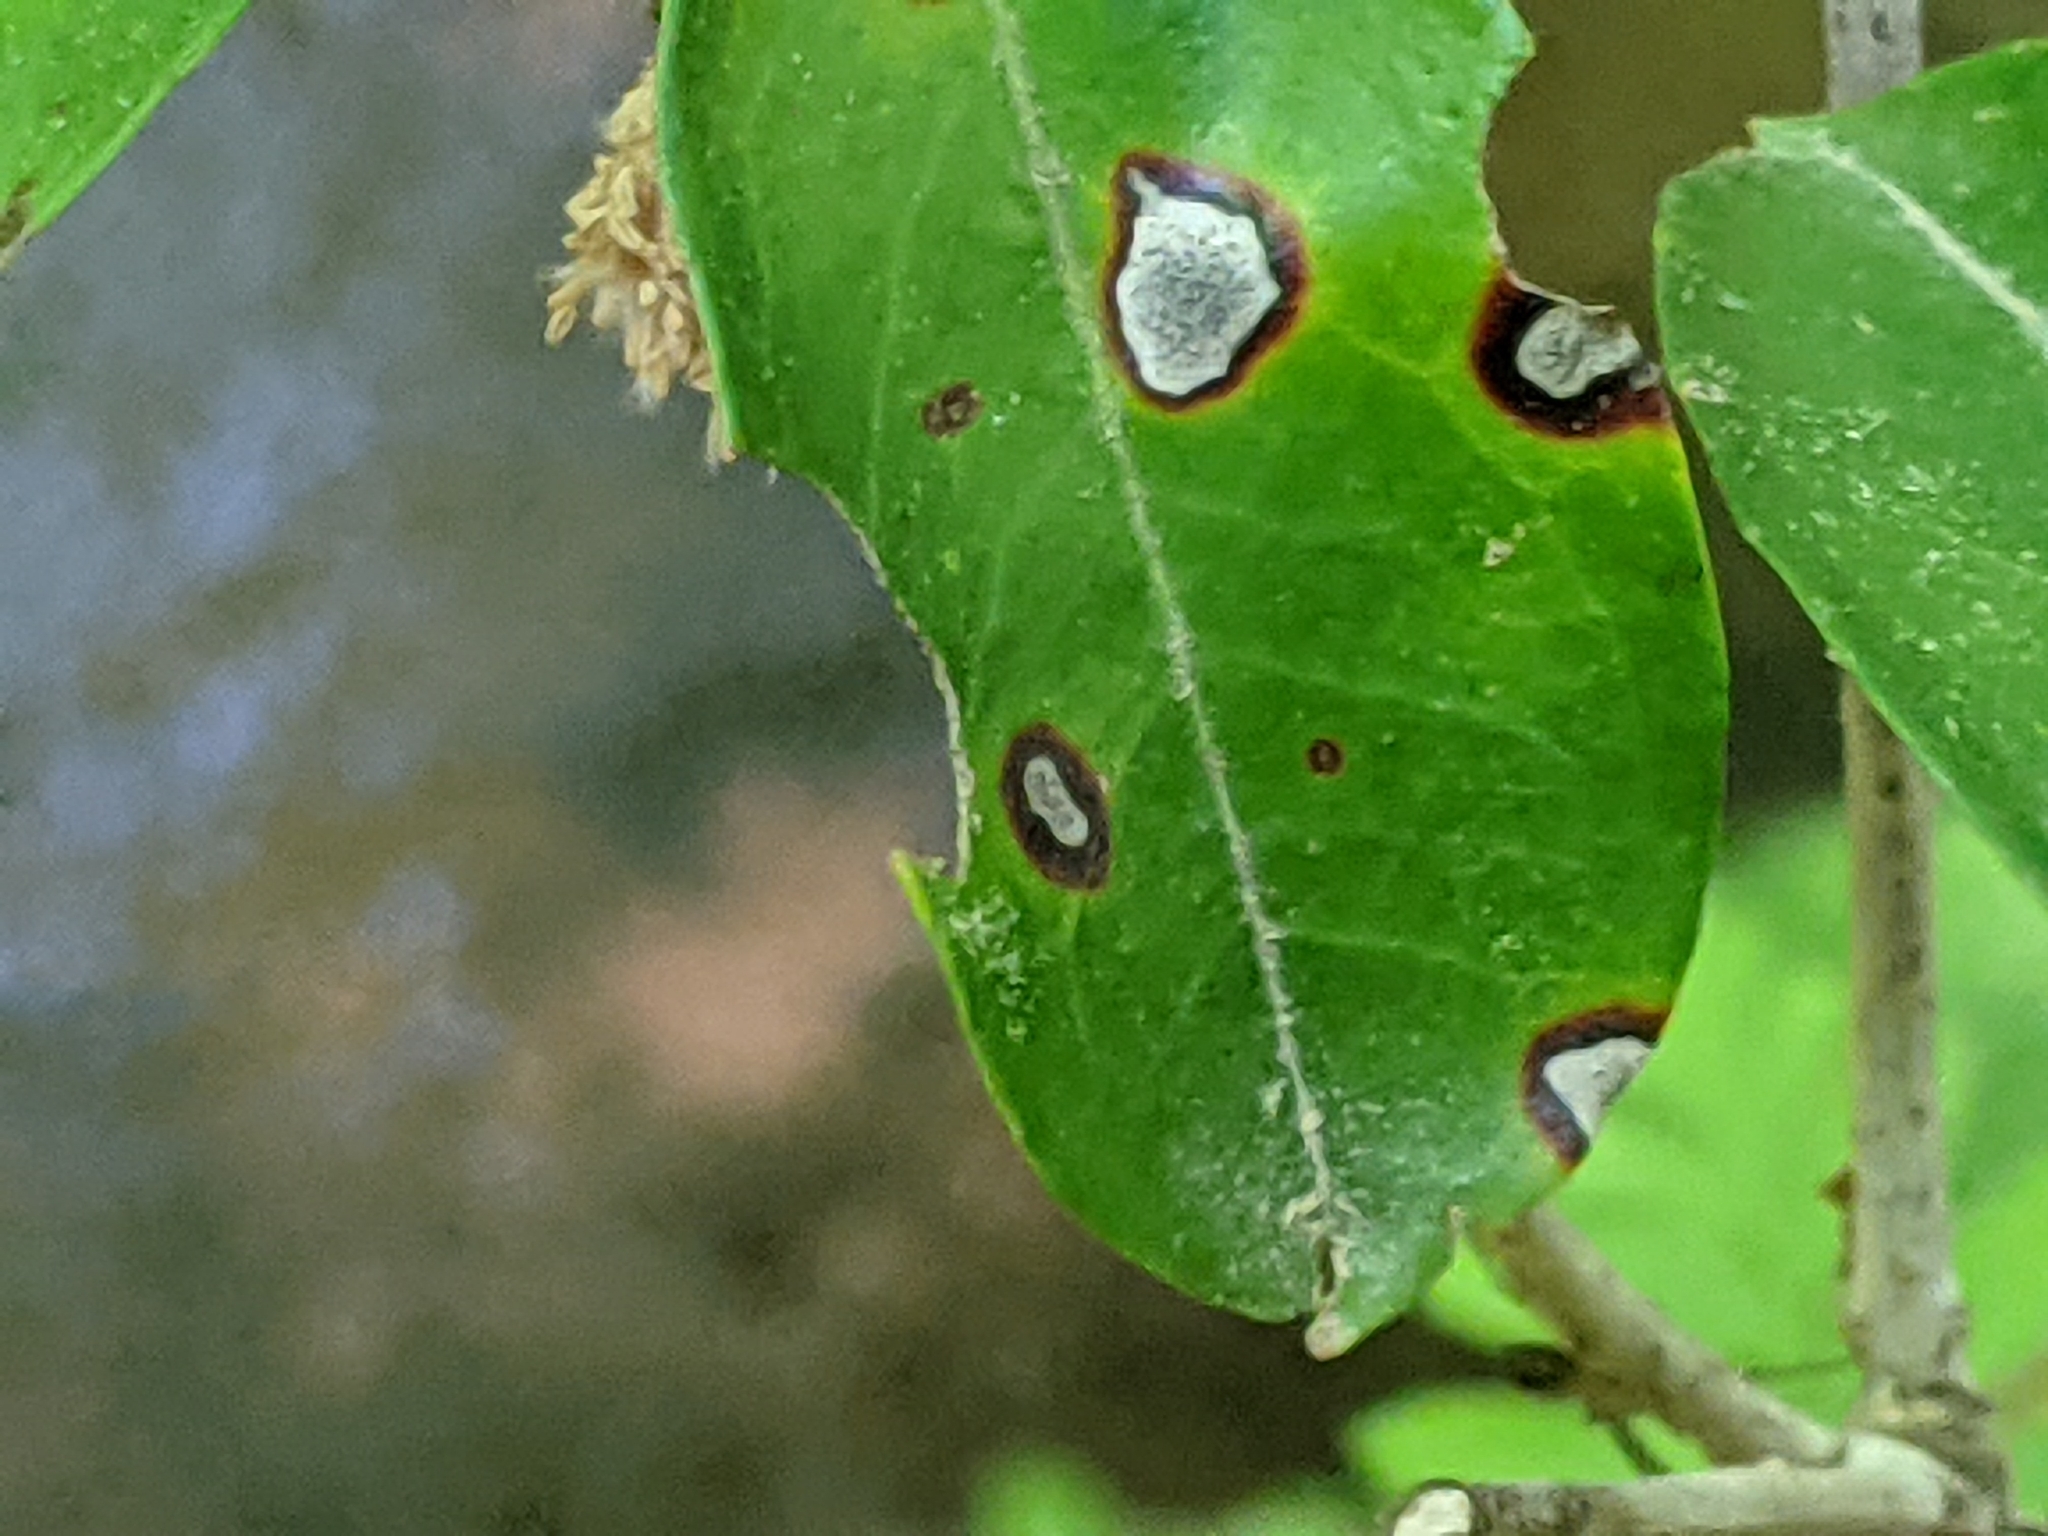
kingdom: Fungi
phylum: Ascomycota
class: Dothideomycetes
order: Mycosphaerellales
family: Mycosphaerellaceae
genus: Mycosphaerella
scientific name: Mycosphaerella colorata
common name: Mountain laurel leaf spot
